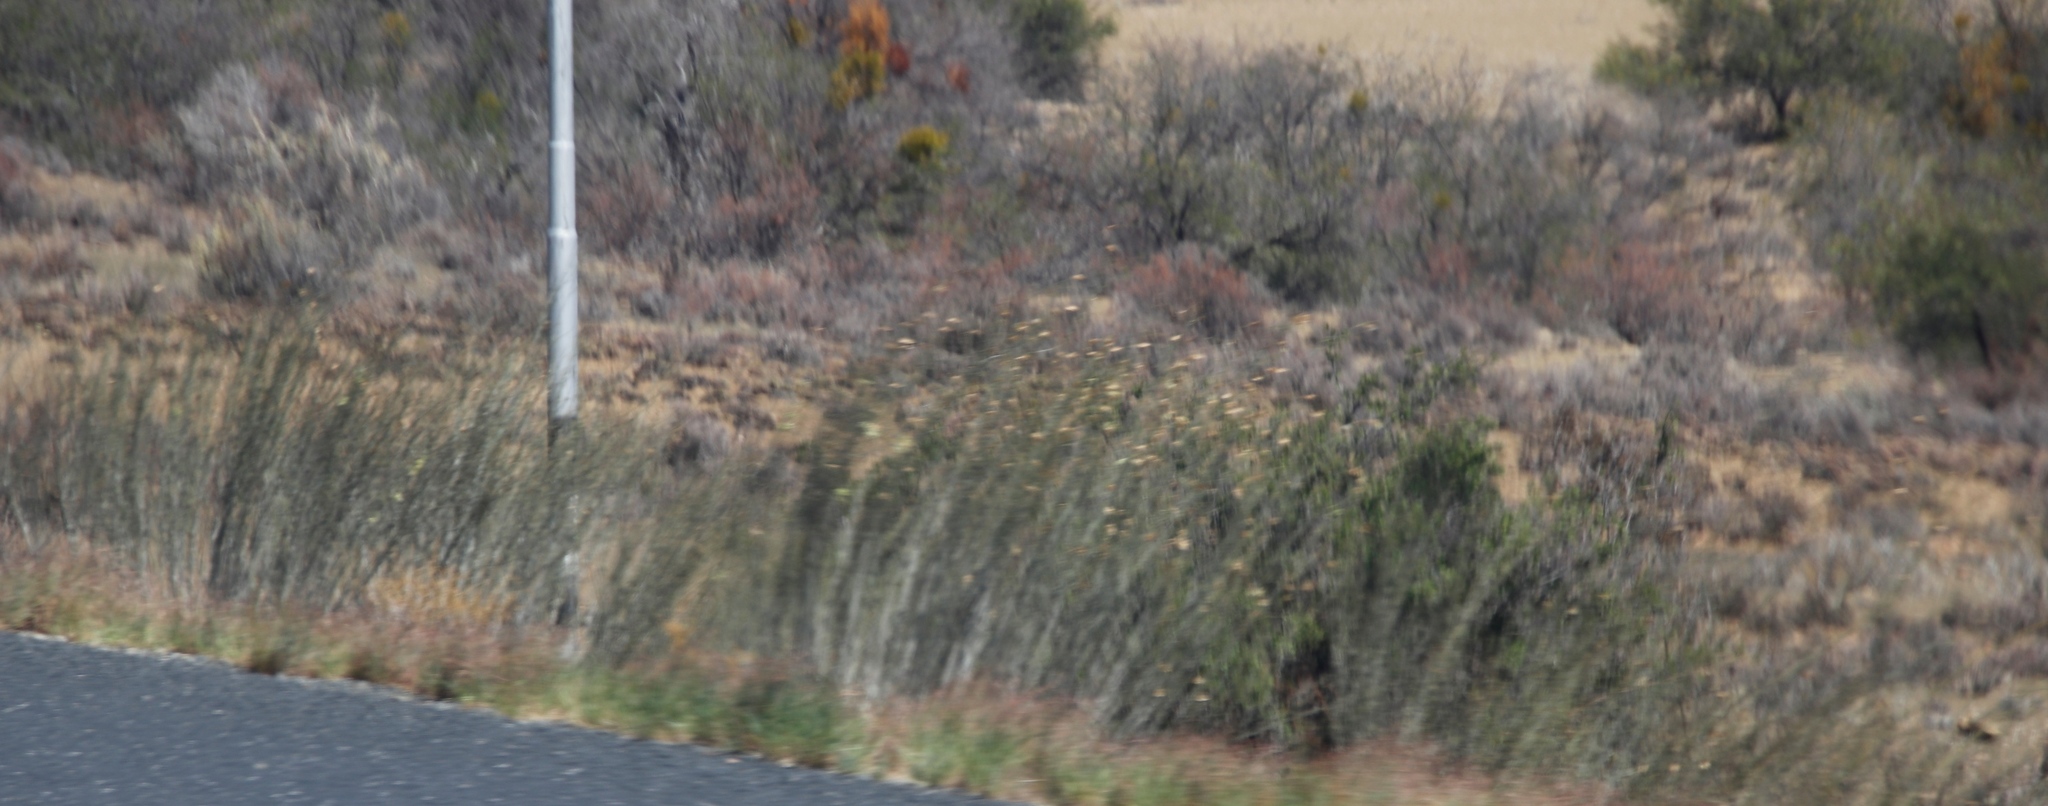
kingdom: Plantae
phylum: Tracheophyta
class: Magnoliopsida
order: Gentianales
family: Apocynaceae
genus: Gomphocarpus
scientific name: Gomphocarpus filiformis
